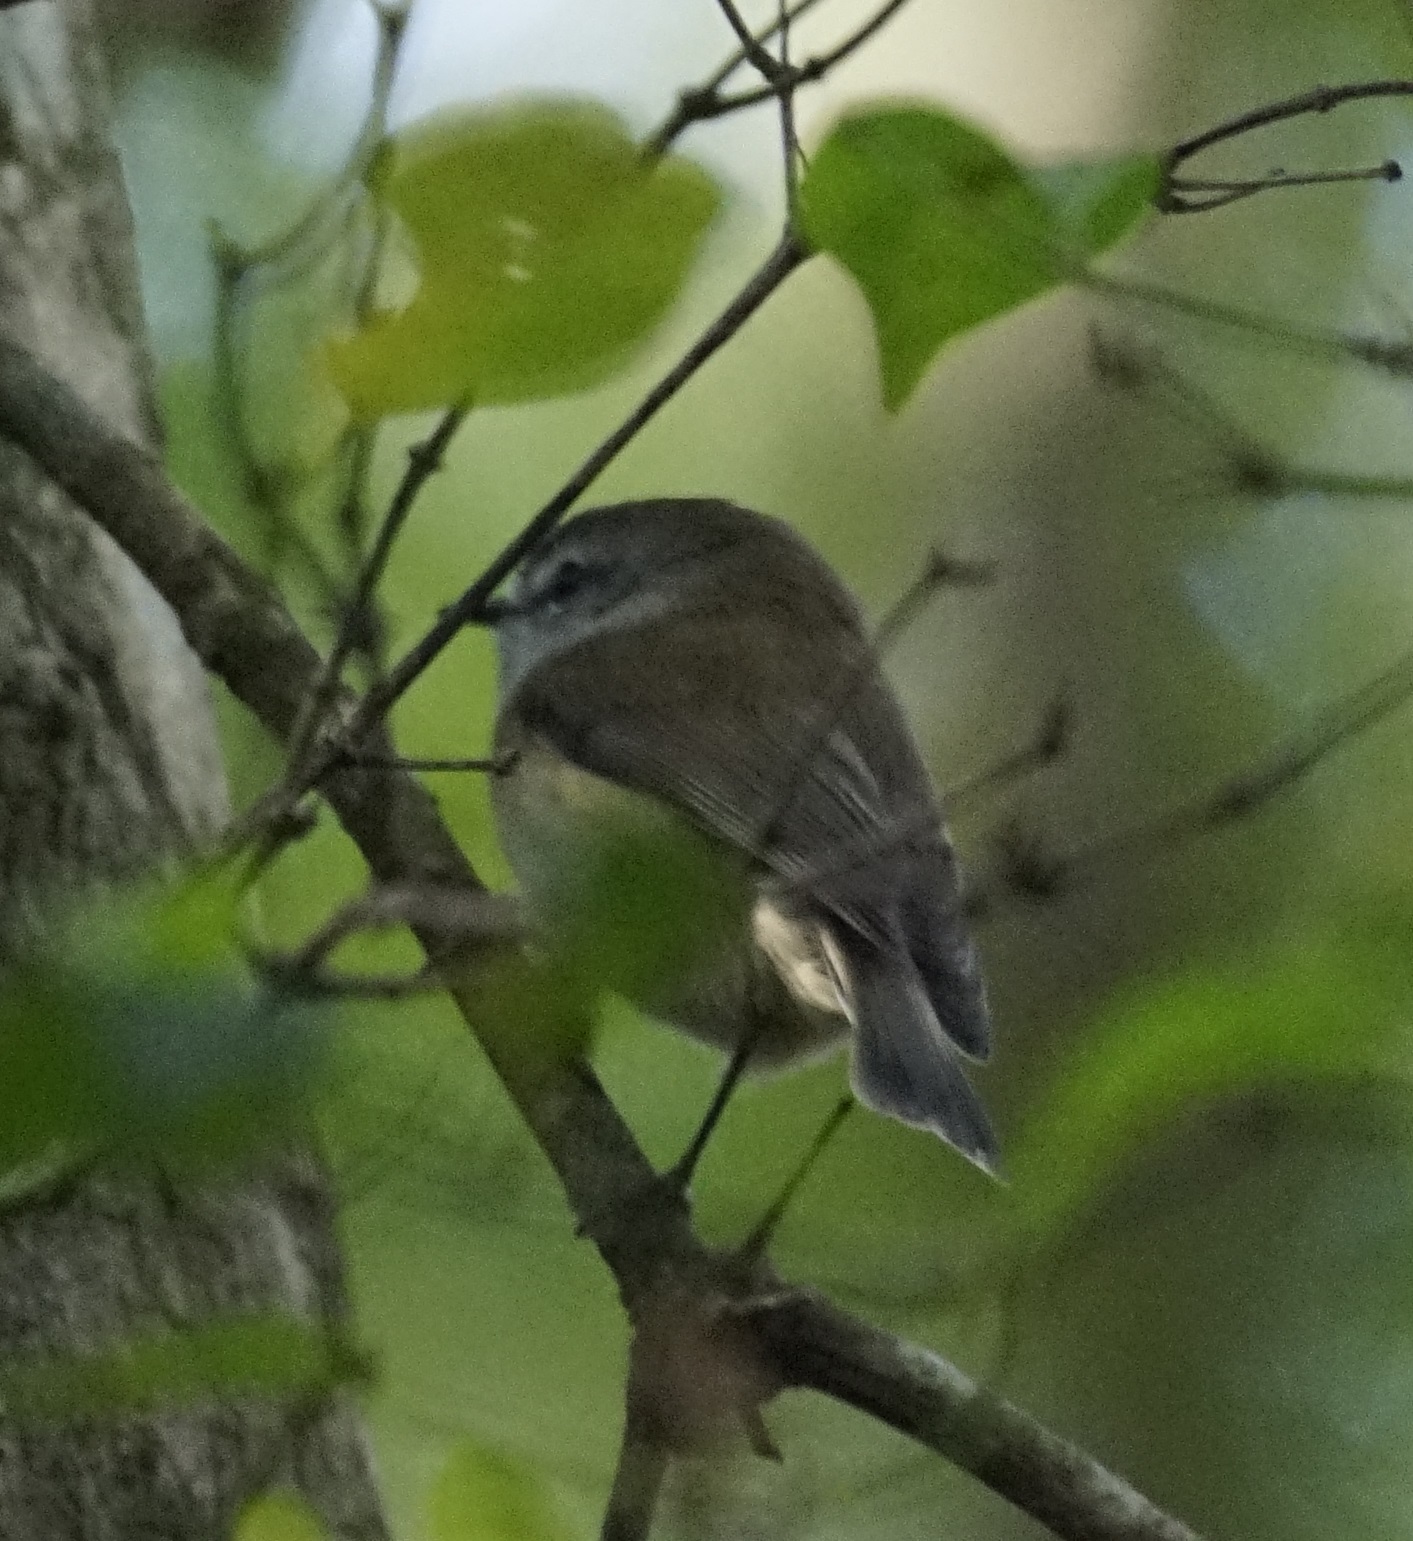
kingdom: Animalia
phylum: Chordata
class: Aves
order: Passeriformes
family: Acanthizidae
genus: Gerygone
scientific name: Gerygone mouki
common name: Brown gerygone
